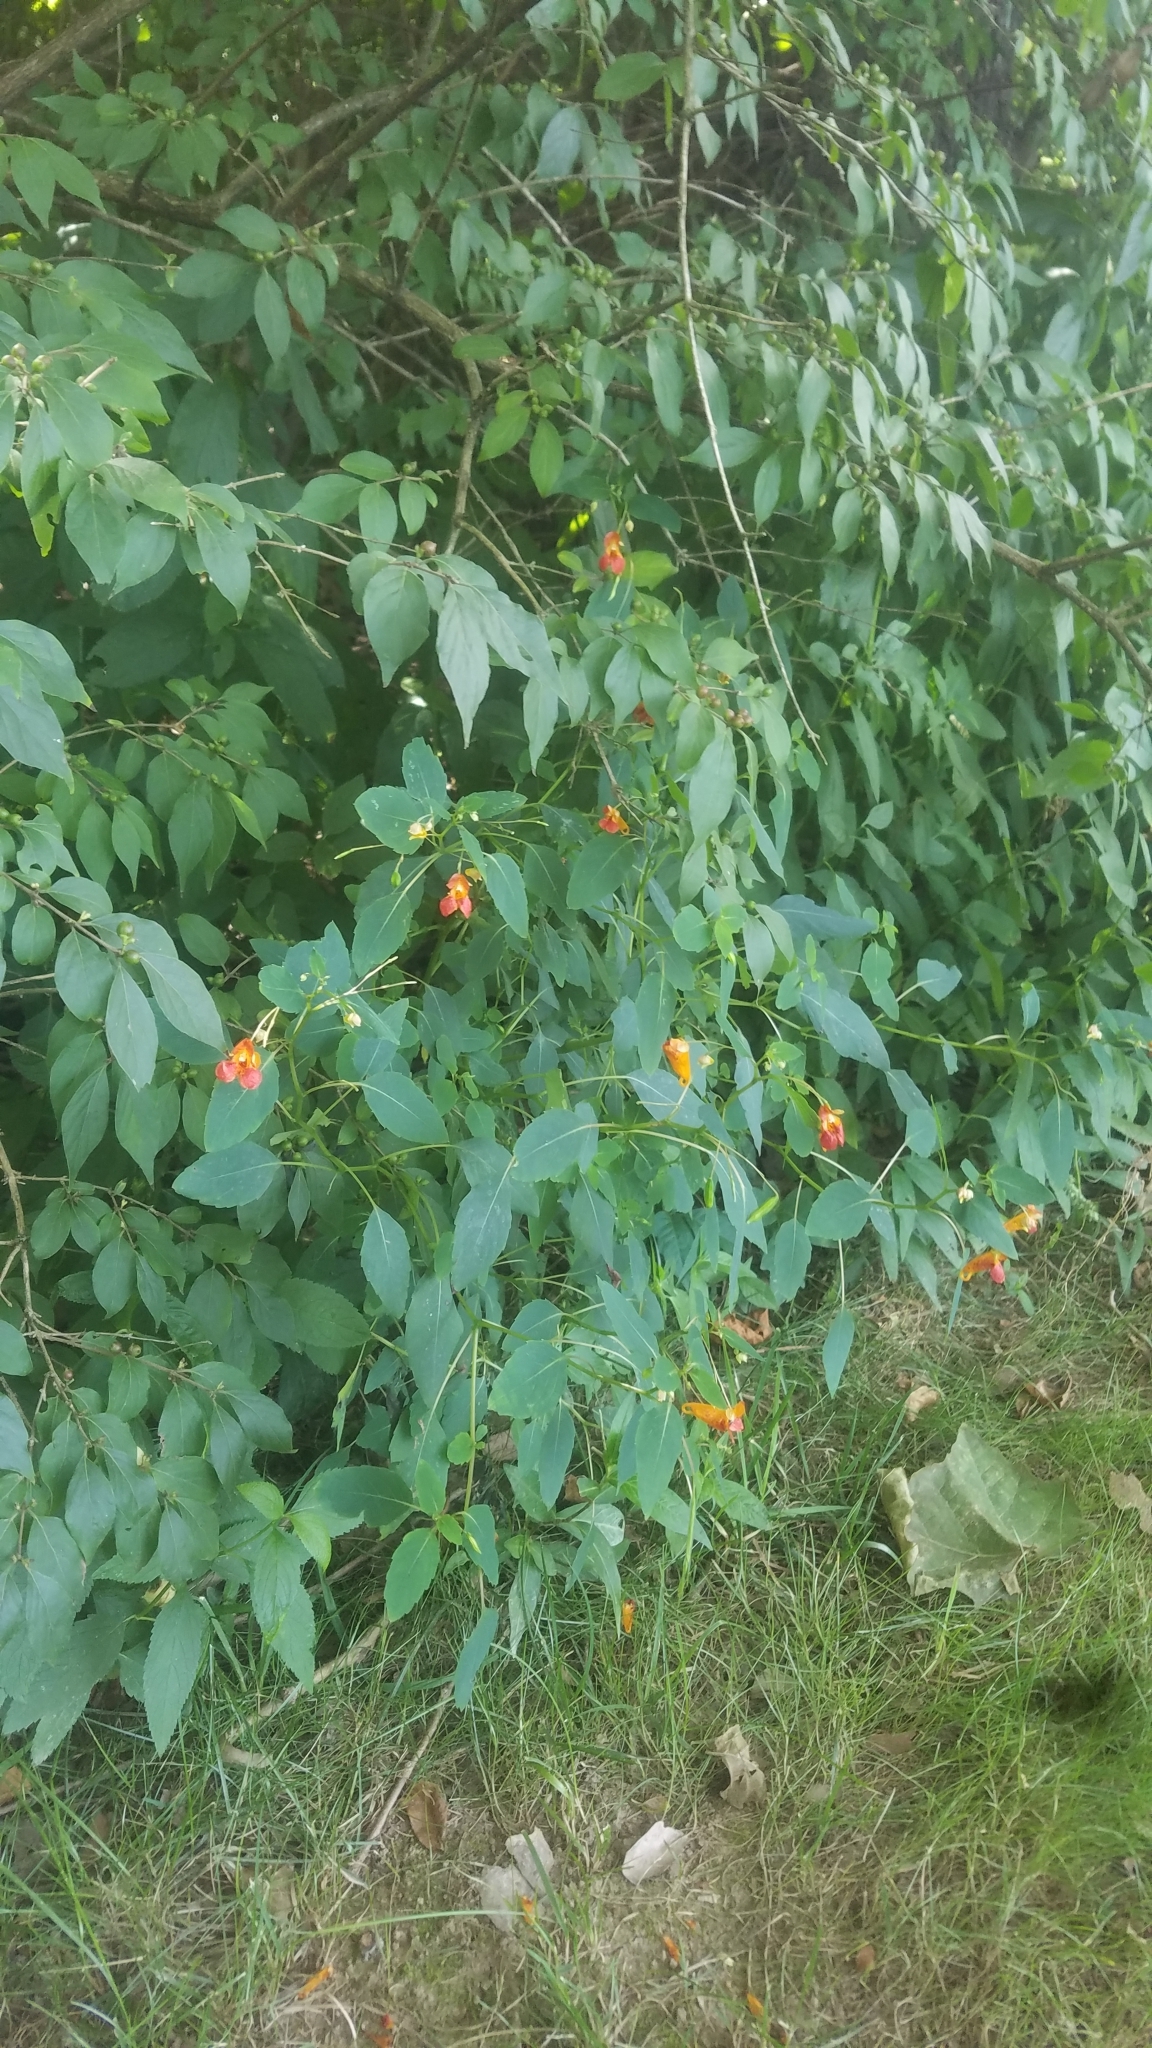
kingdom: Plantae
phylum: Tracheophyta
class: Magnoliopsida
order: Ericales
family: Balsaminaceae
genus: Impatiens
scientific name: Impatiens capensis
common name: Orange balsam
